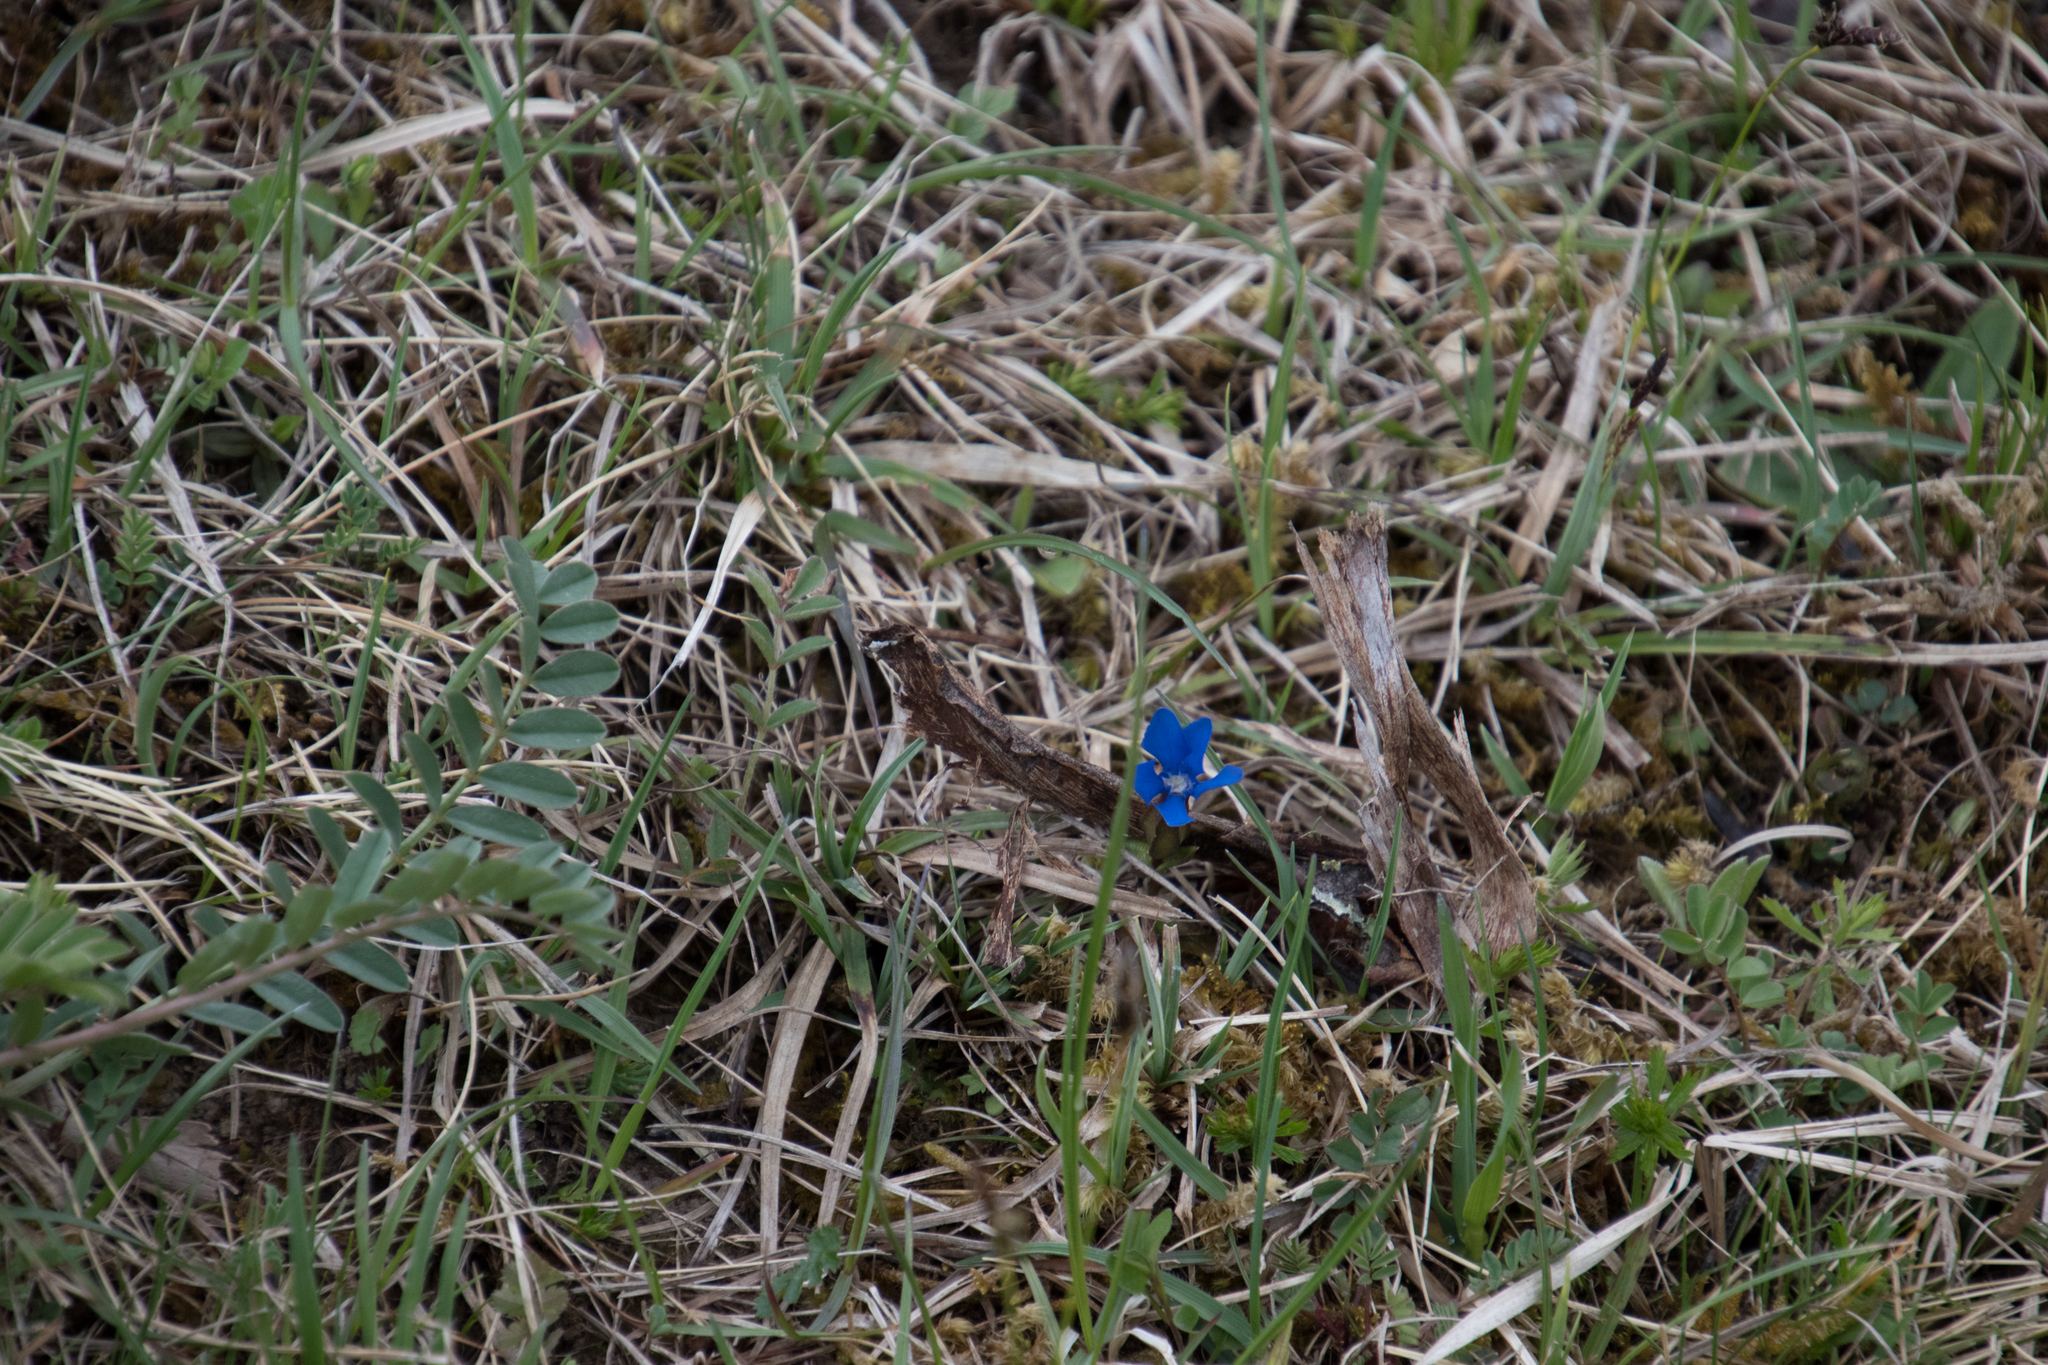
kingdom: Plantae
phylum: Tracheophyta
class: Magnoliopsida
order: Gentianales
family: Gentianaceae
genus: Gentiana
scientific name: Gentiana verna
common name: Spring gentian
